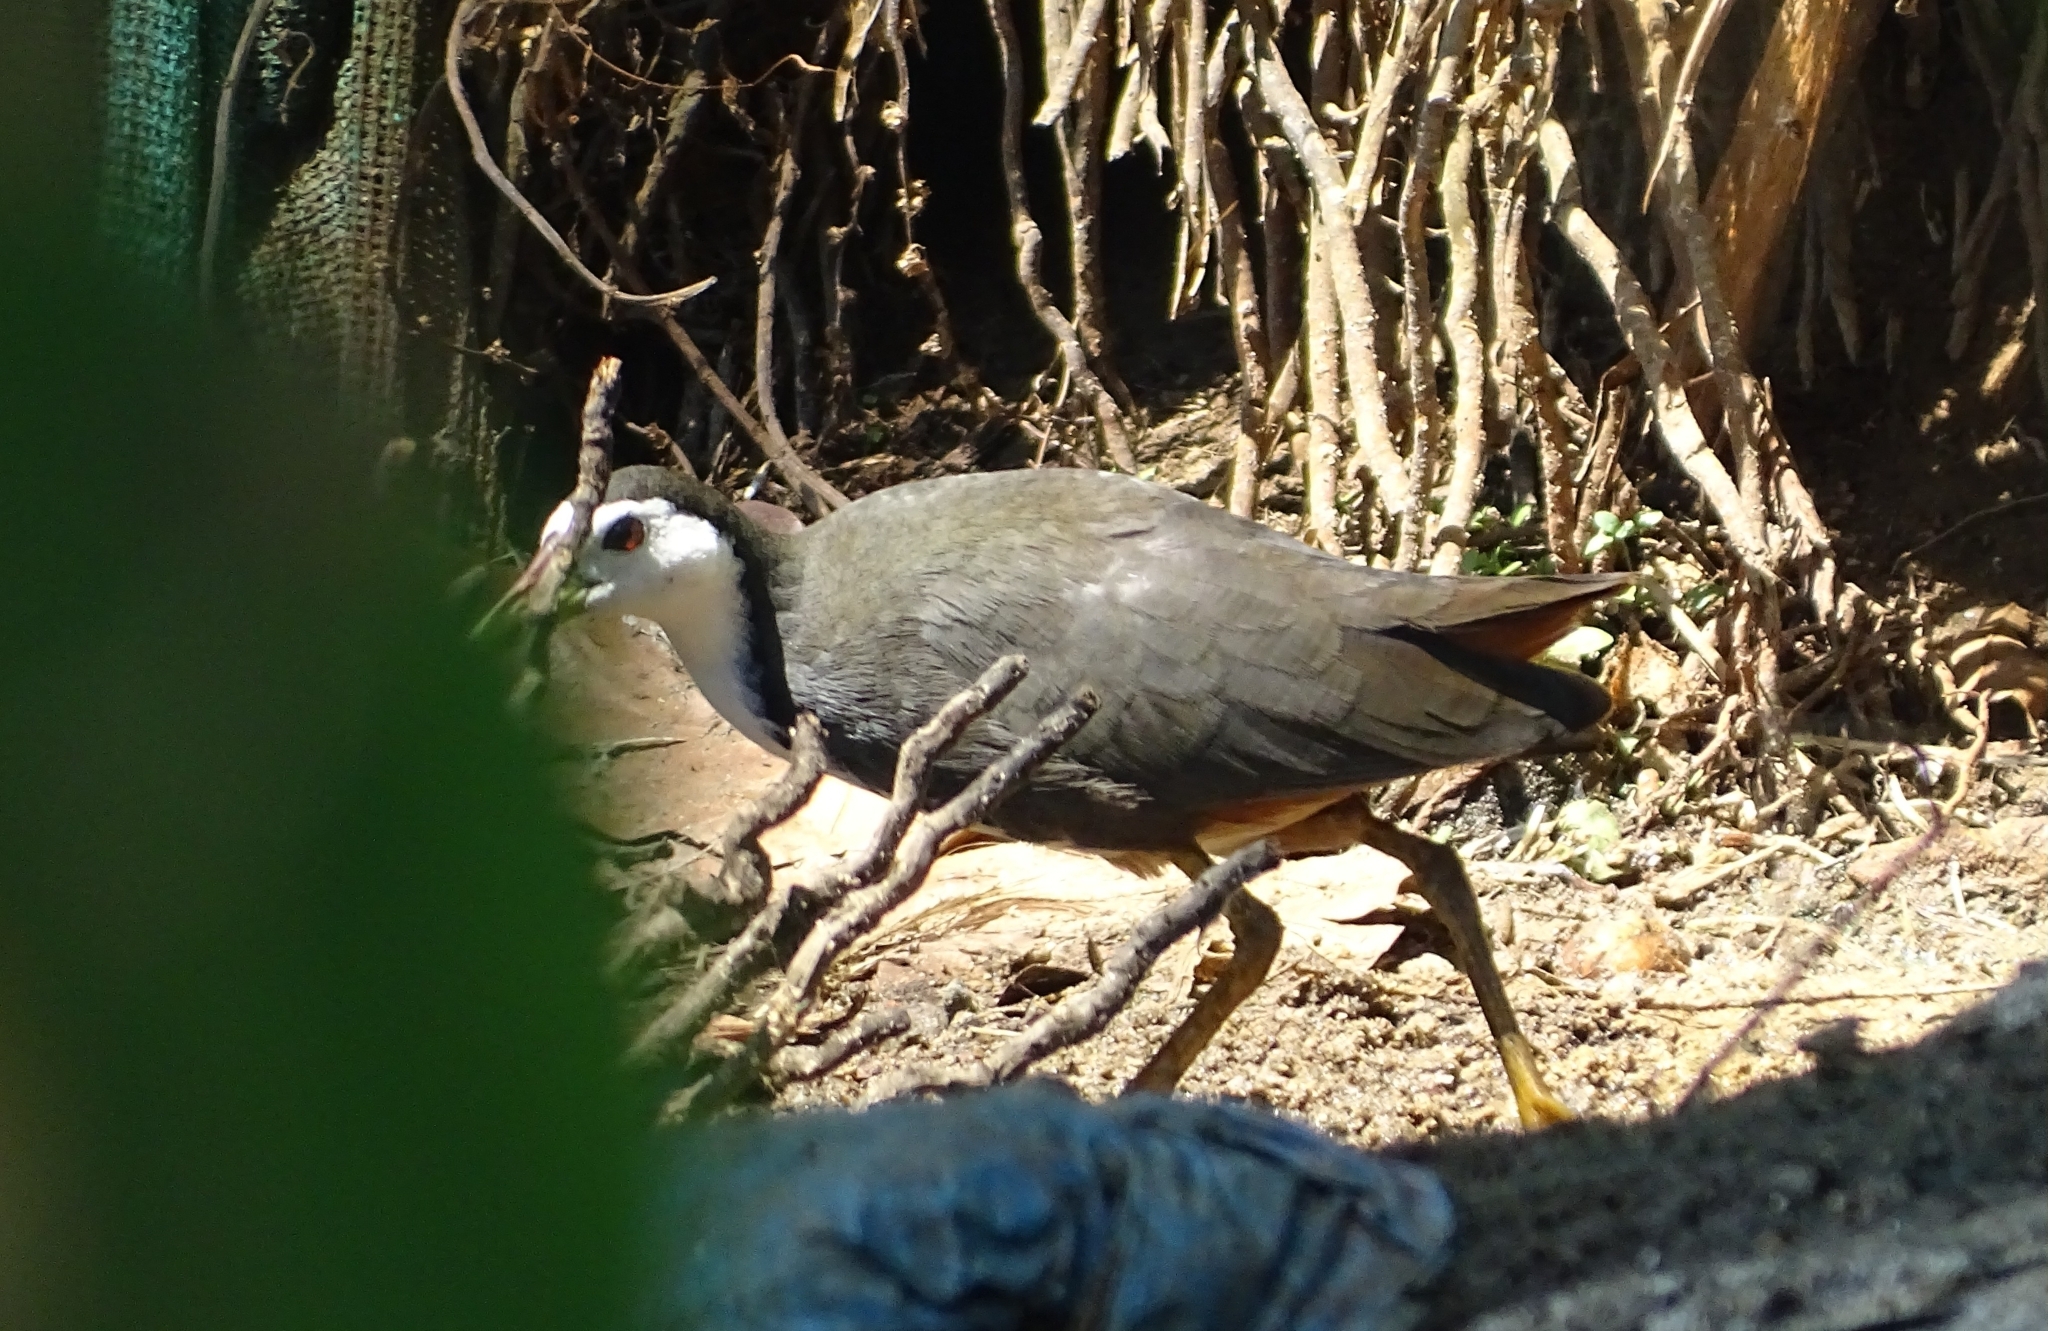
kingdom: Animalia
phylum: Chordata
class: Aves
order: Gruiformes
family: Rallidae
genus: Amaurornis
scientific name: Amaurornis phoenicurus
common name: White-breasted waterhen
